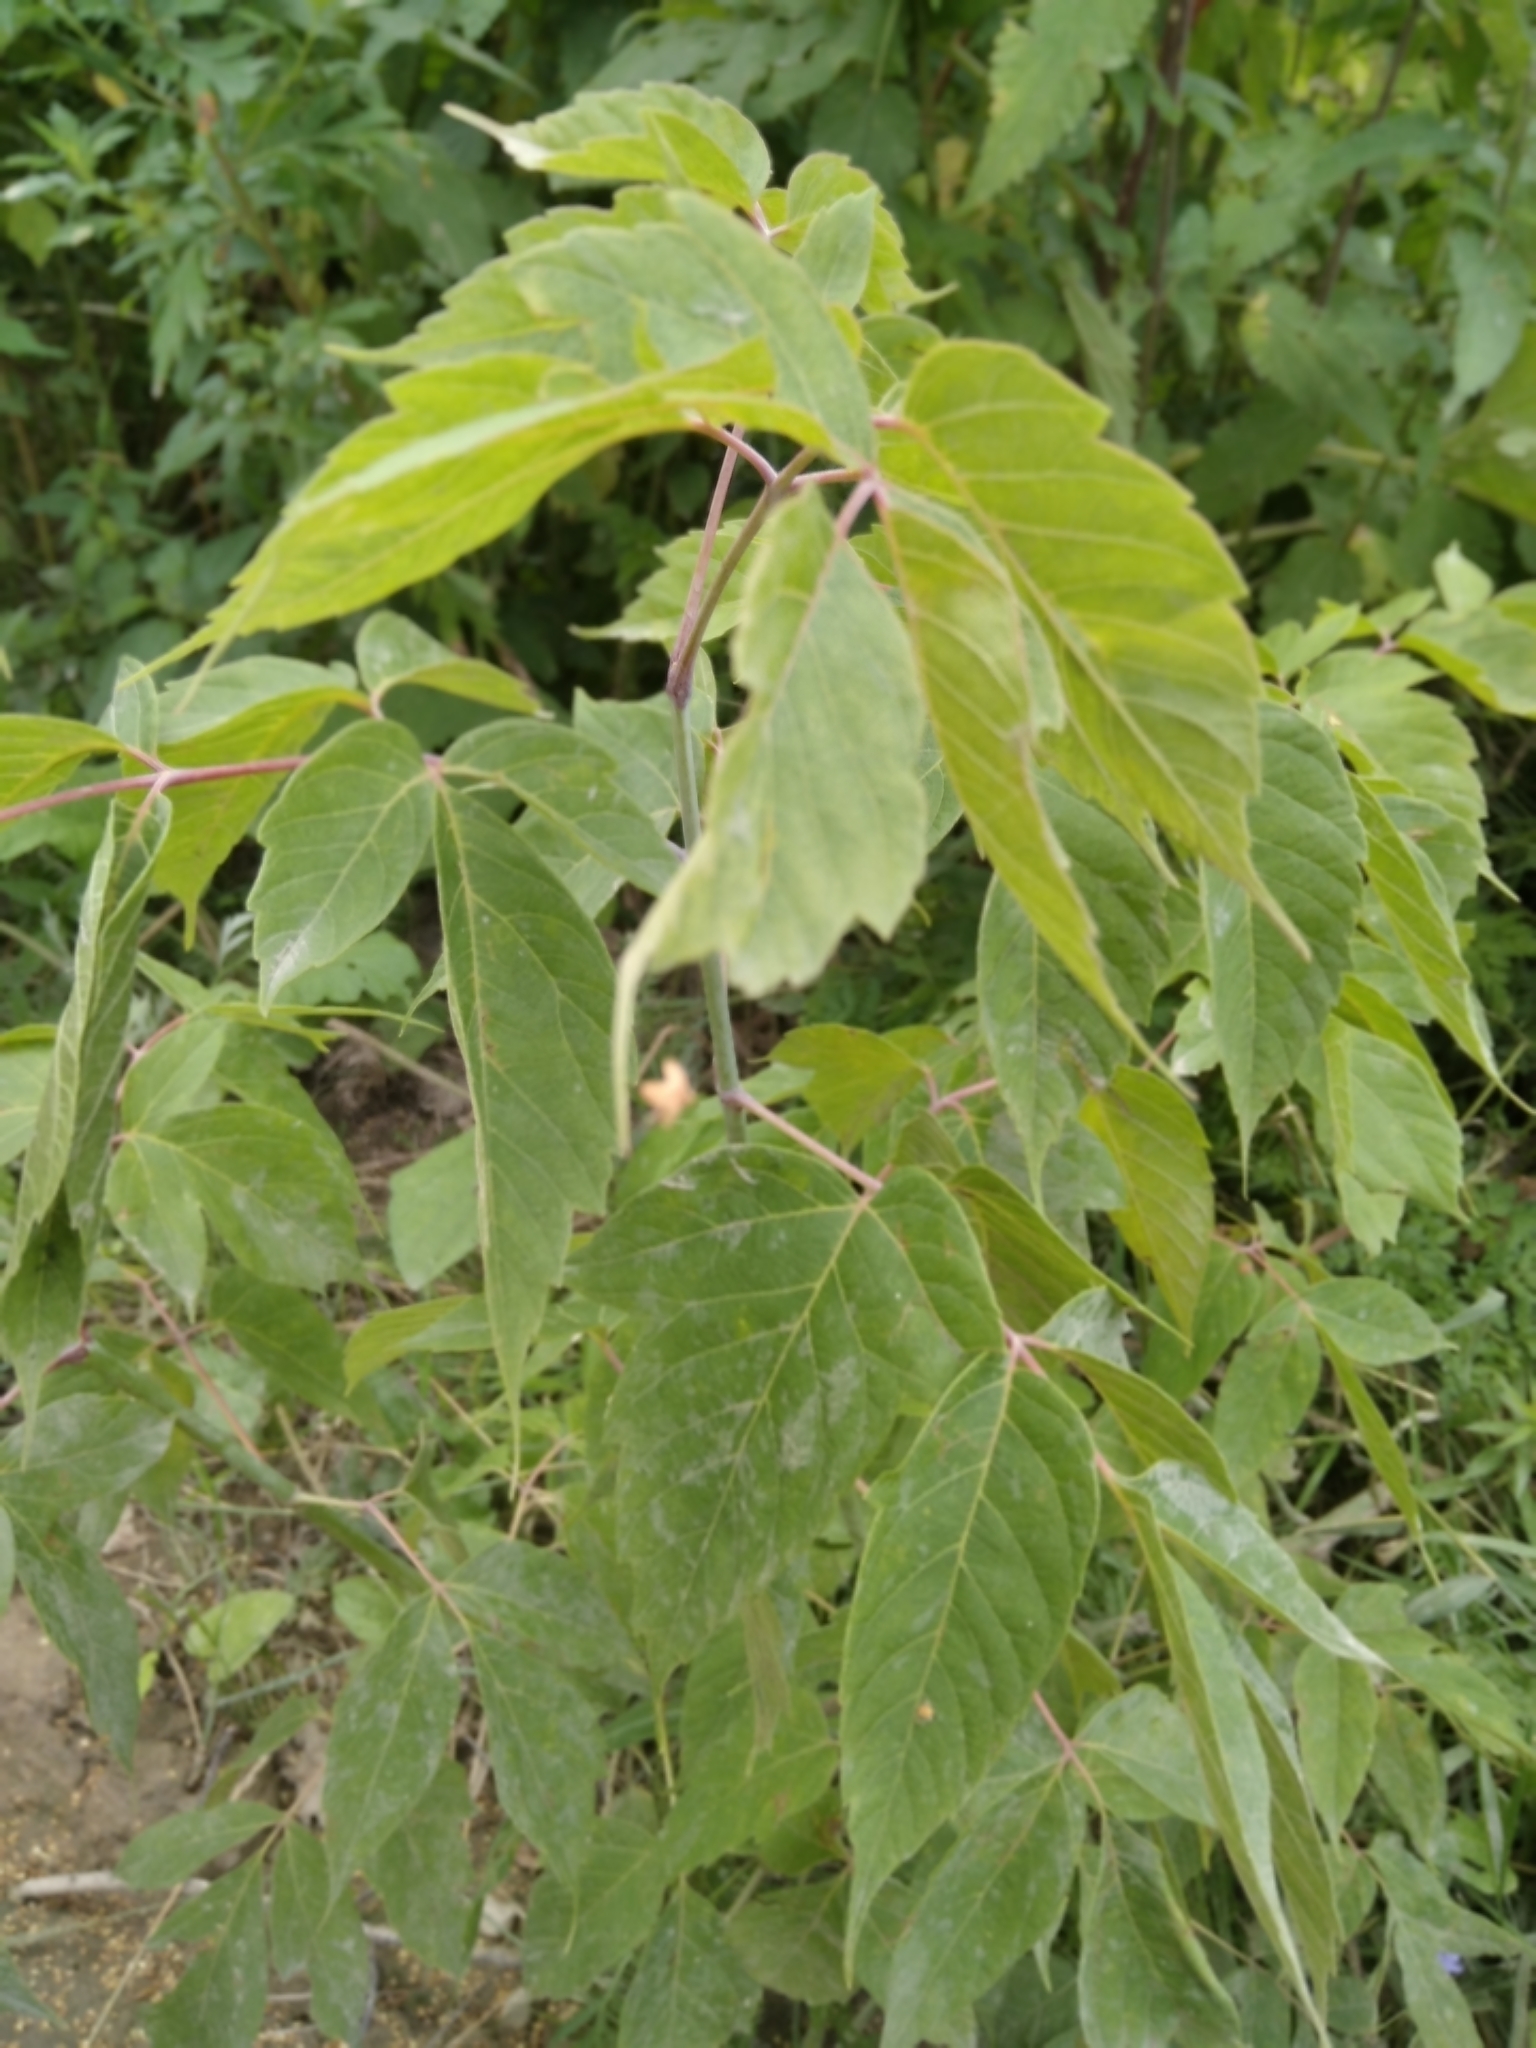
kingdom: Plantae
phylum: Tracheophyta
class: Magnoliopsida
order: Sapindales
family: Sapindaceae
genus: Acer
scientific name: Acer negundo
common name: Ashleaf maple
